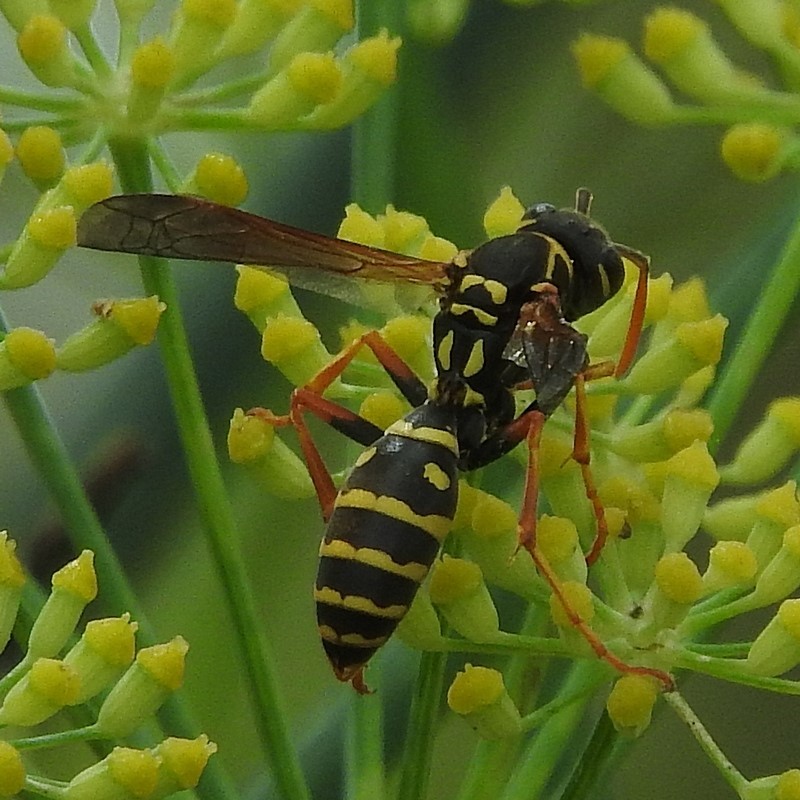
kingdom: Animalia
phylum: Arthropoda
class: Insecta
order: Hymenoptera
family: Eumenidae
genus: Polistes
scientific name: Polistes chinensis
